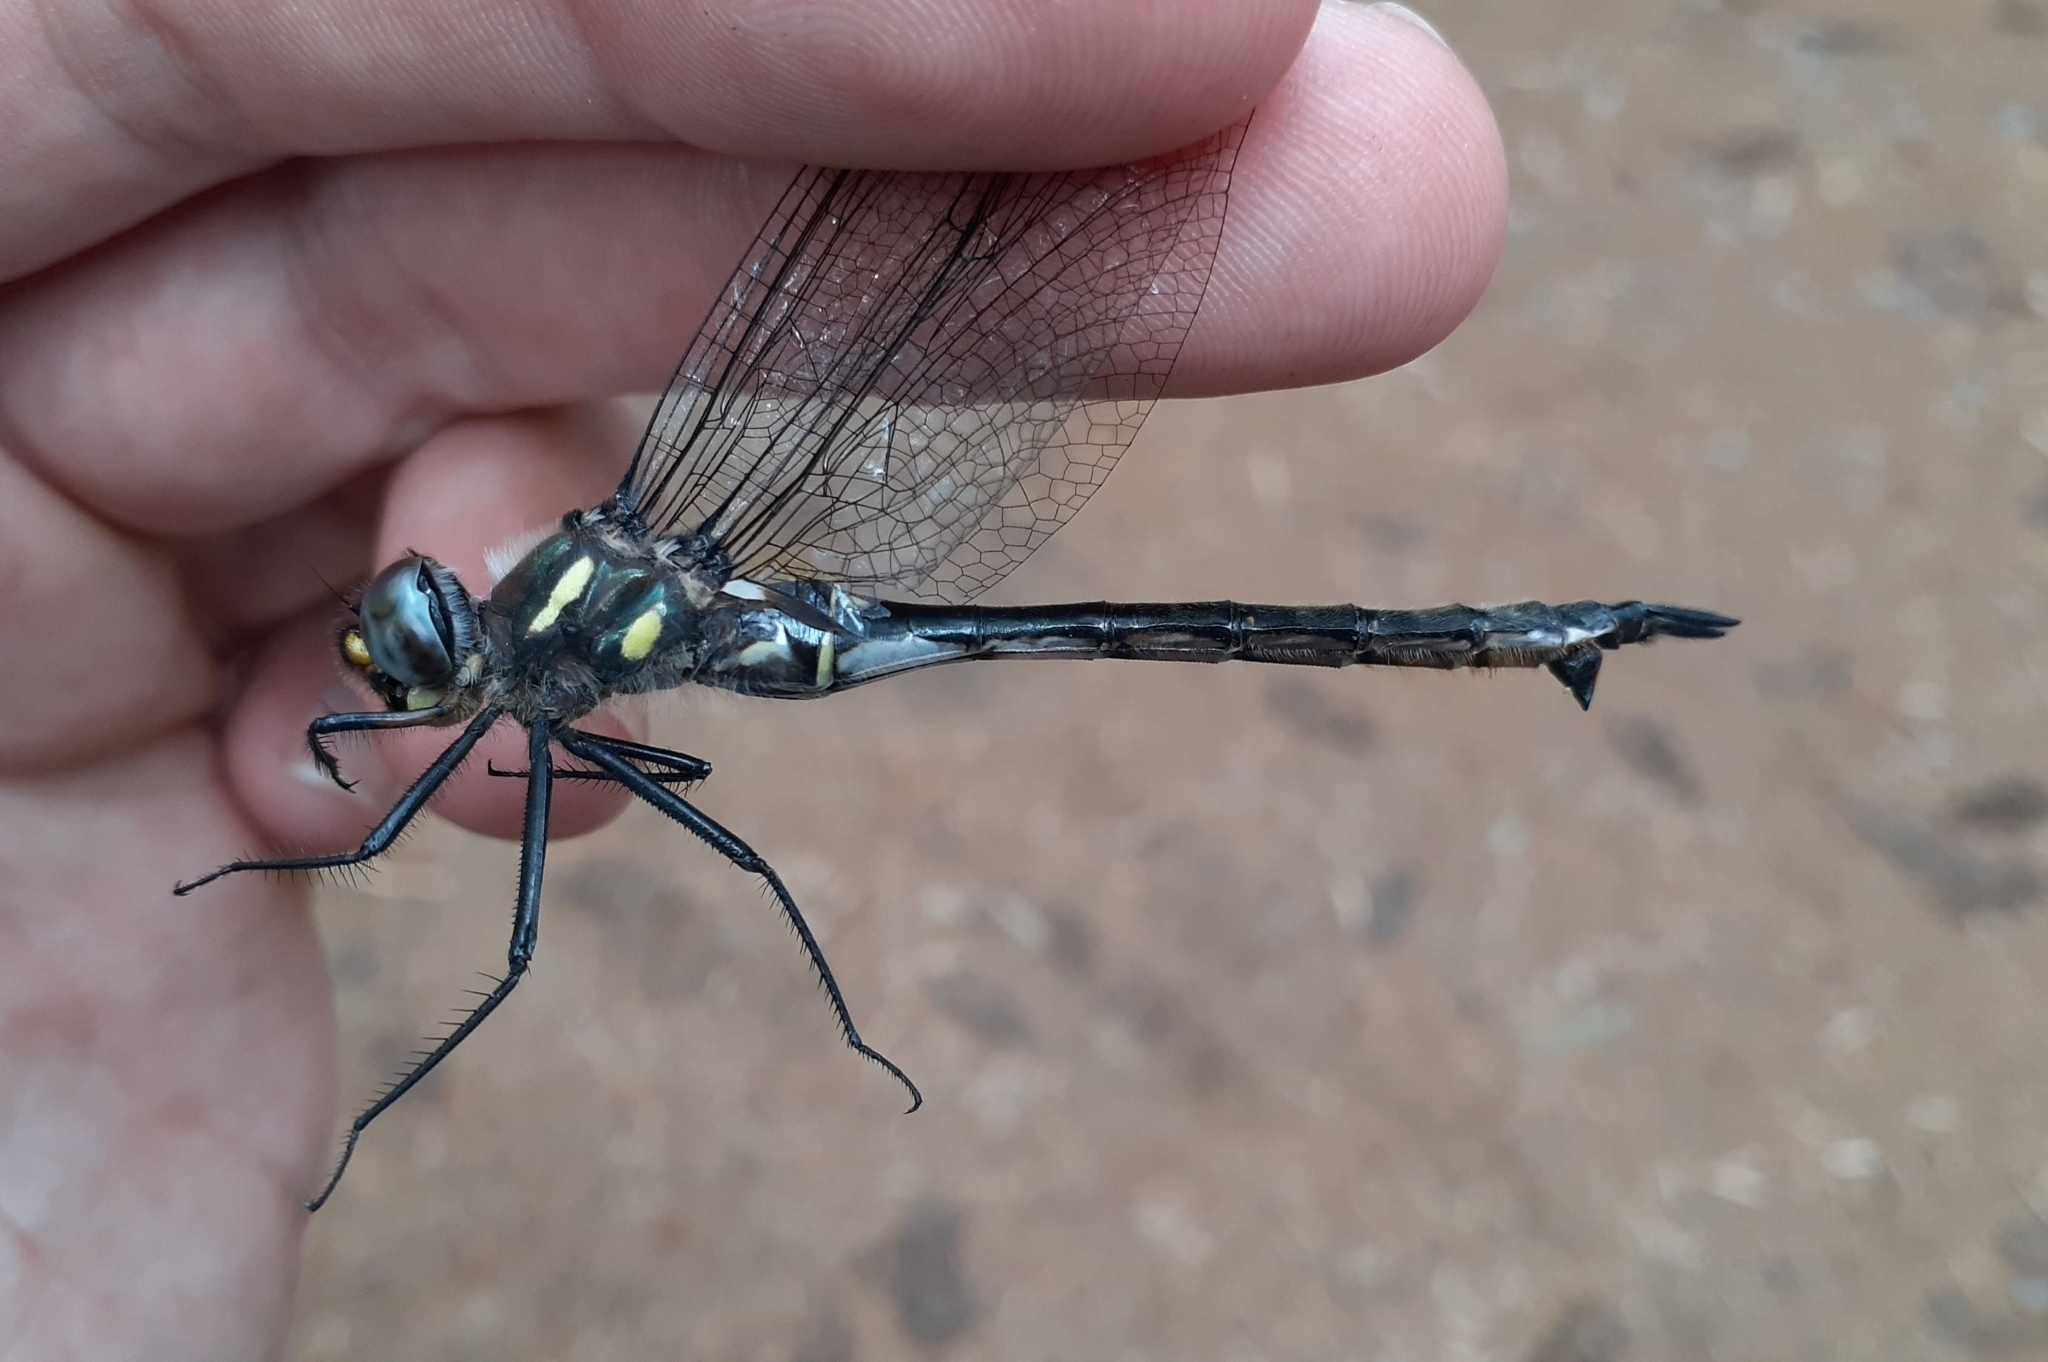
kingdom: Animalia
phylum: Arthropoda
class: Insecta
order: Odonata
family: Corduliidae
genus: Somatochlora
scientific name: Somatochlora elongata
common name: Ski-tipped emerald
